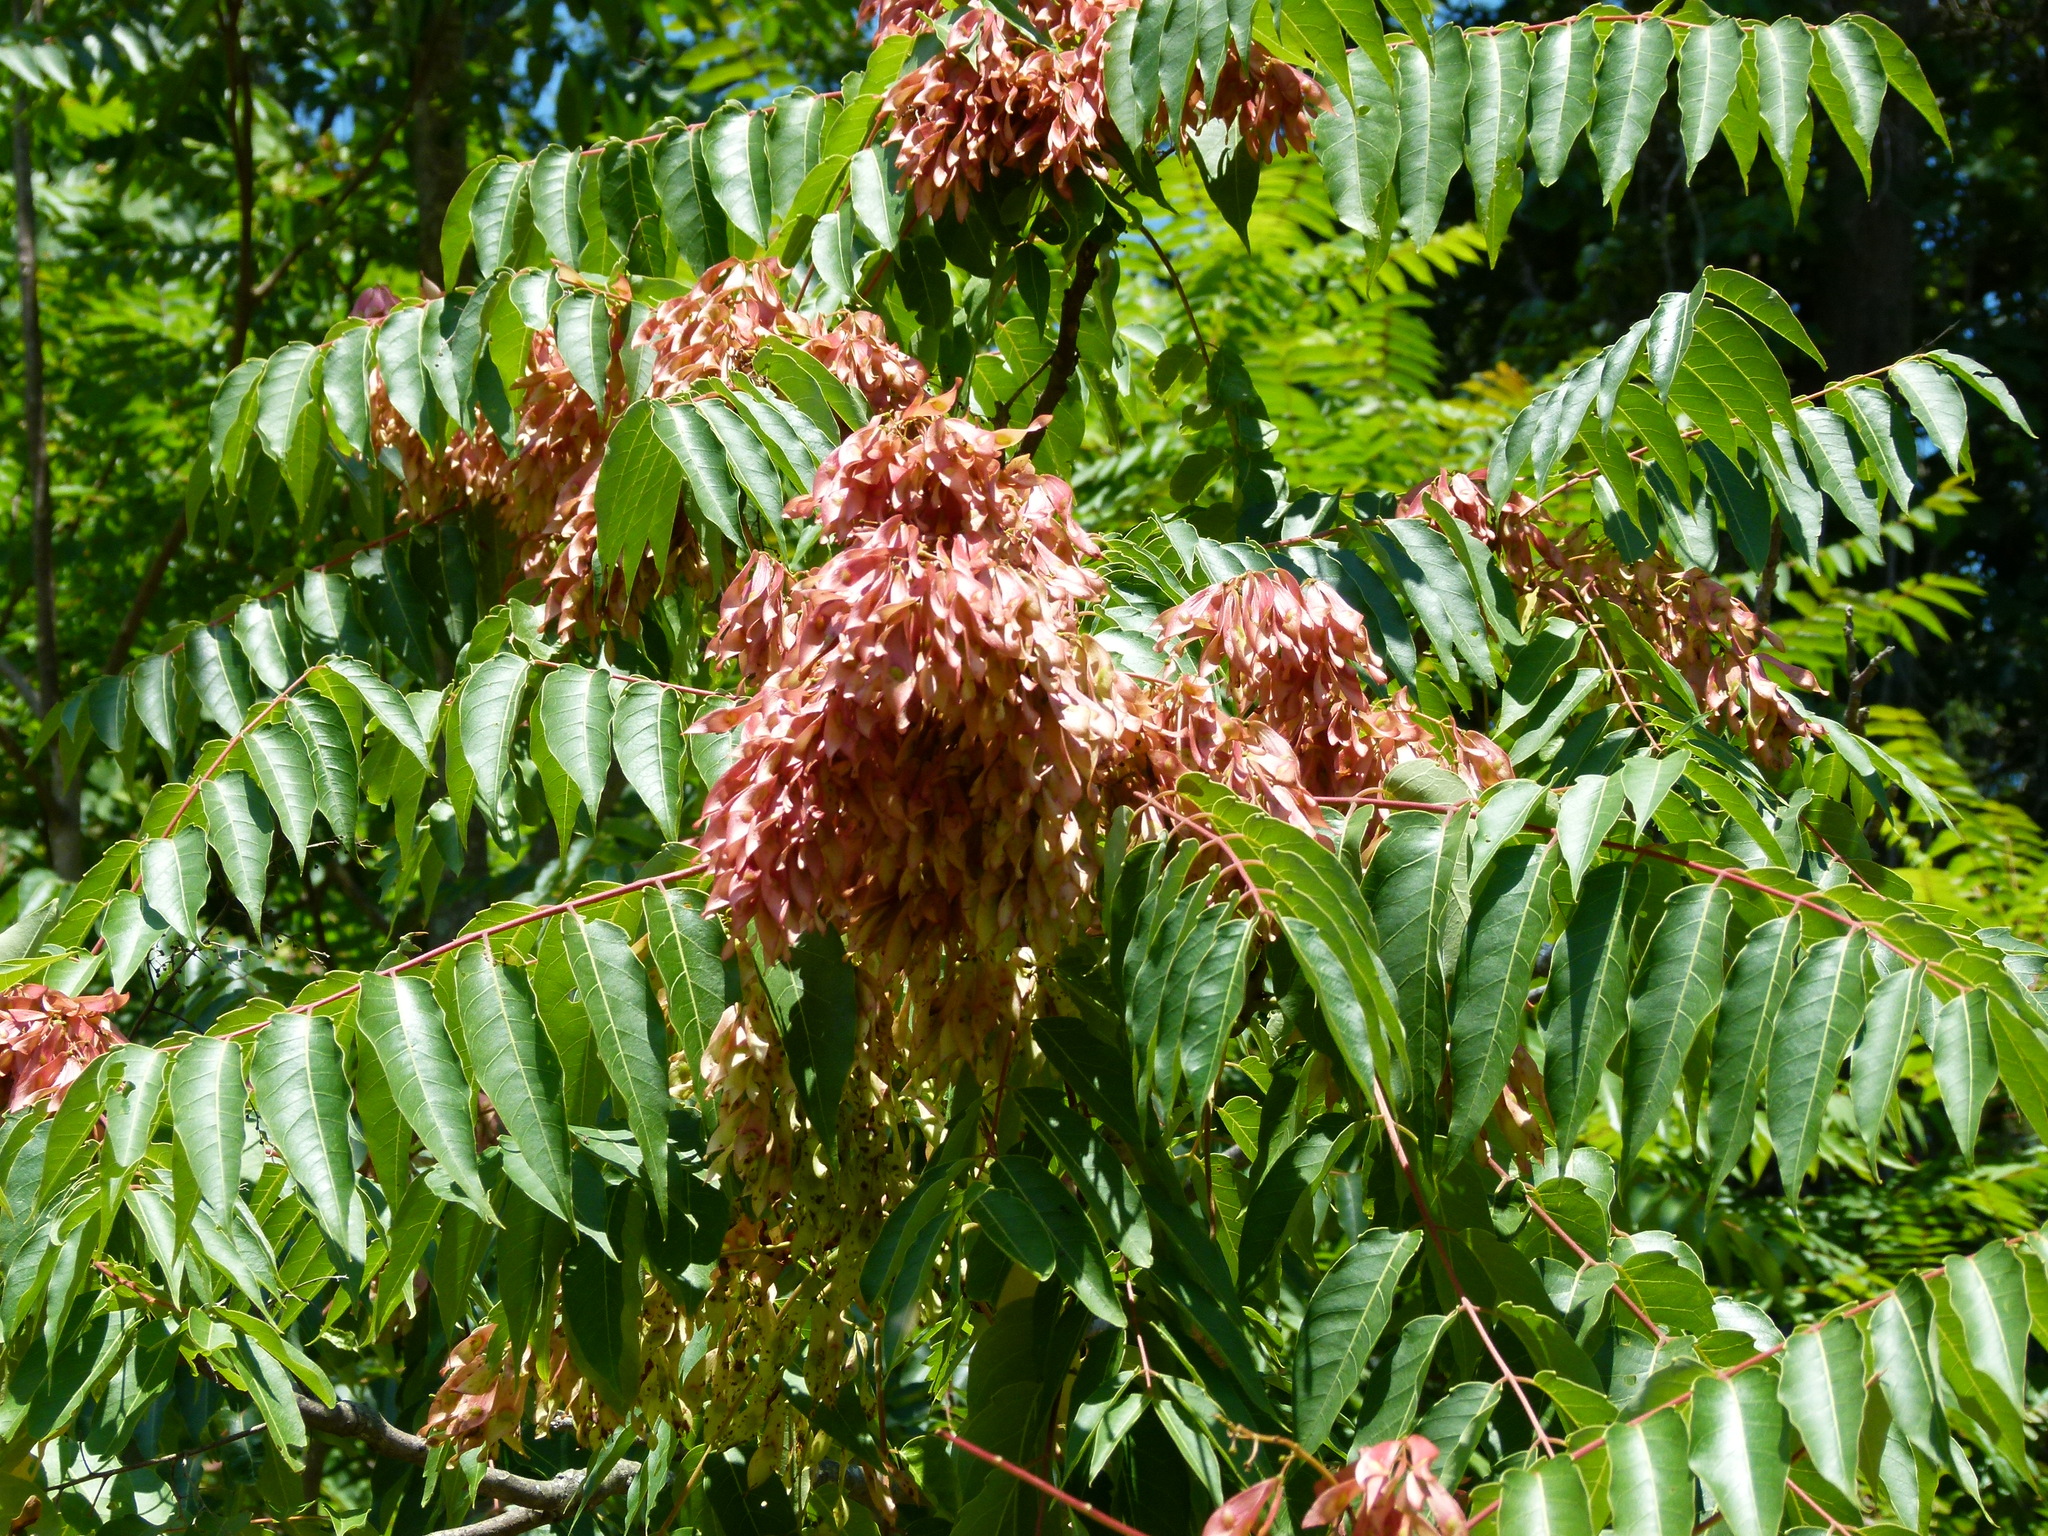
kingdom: Plantae
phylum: Tracheophyta
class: Magnoliopsida
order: Sapindales
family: Simaroubaceae
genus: Ailanthus
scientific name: Ailanthus altissima
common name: Tree-of-heaven
